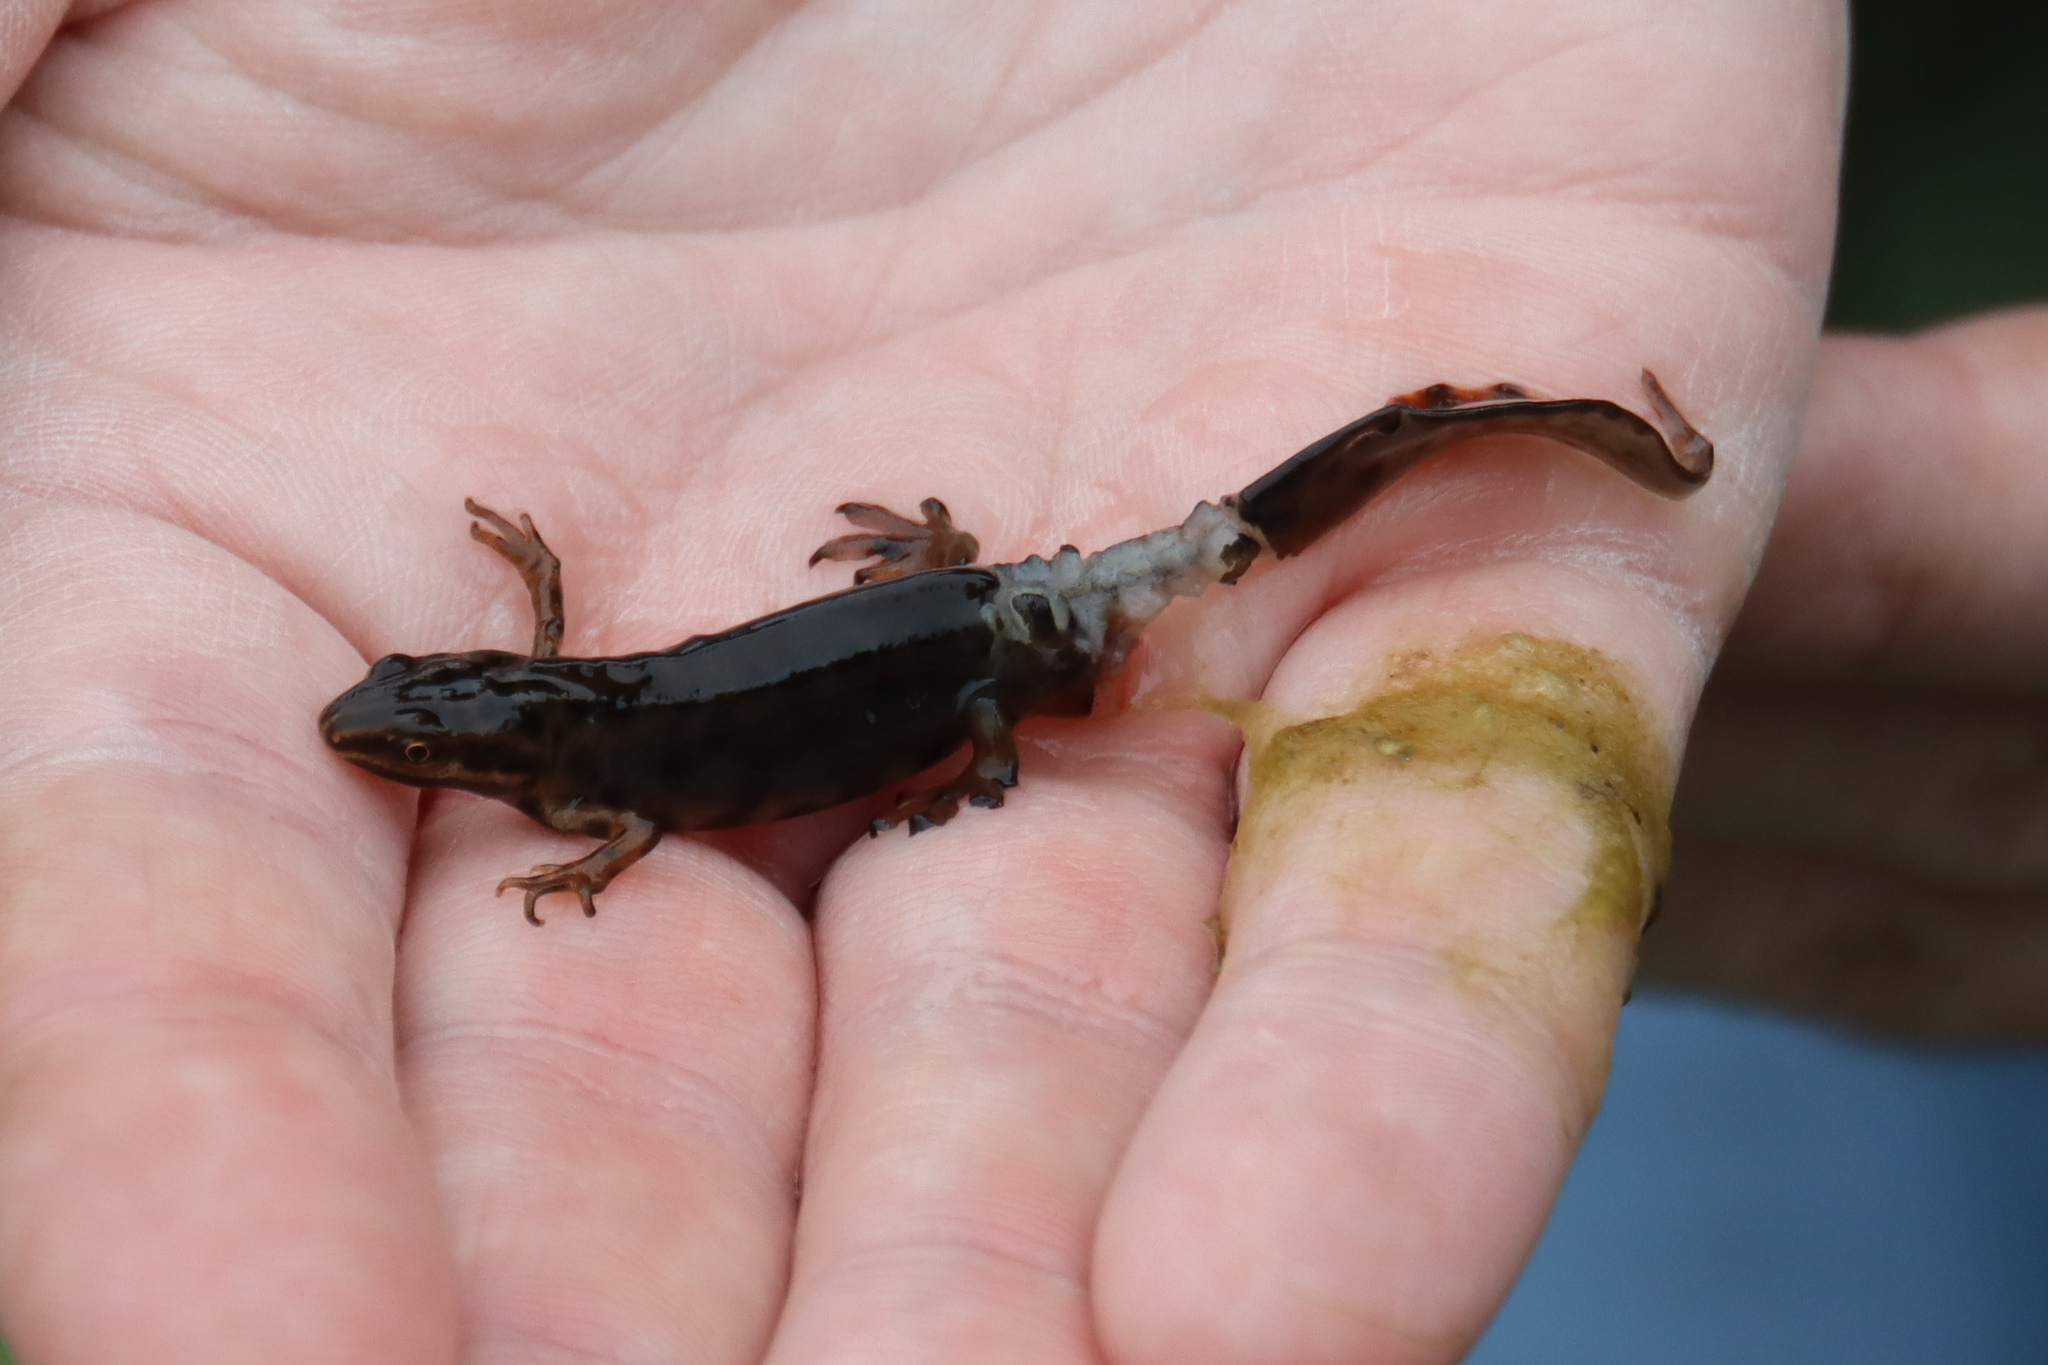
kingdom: Animalia
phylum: Chordata
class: Amphibia
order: Caudata
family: Salamandridae
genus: Lissotriton
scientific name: Lissotriton vulgaris
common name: Smooth newt
